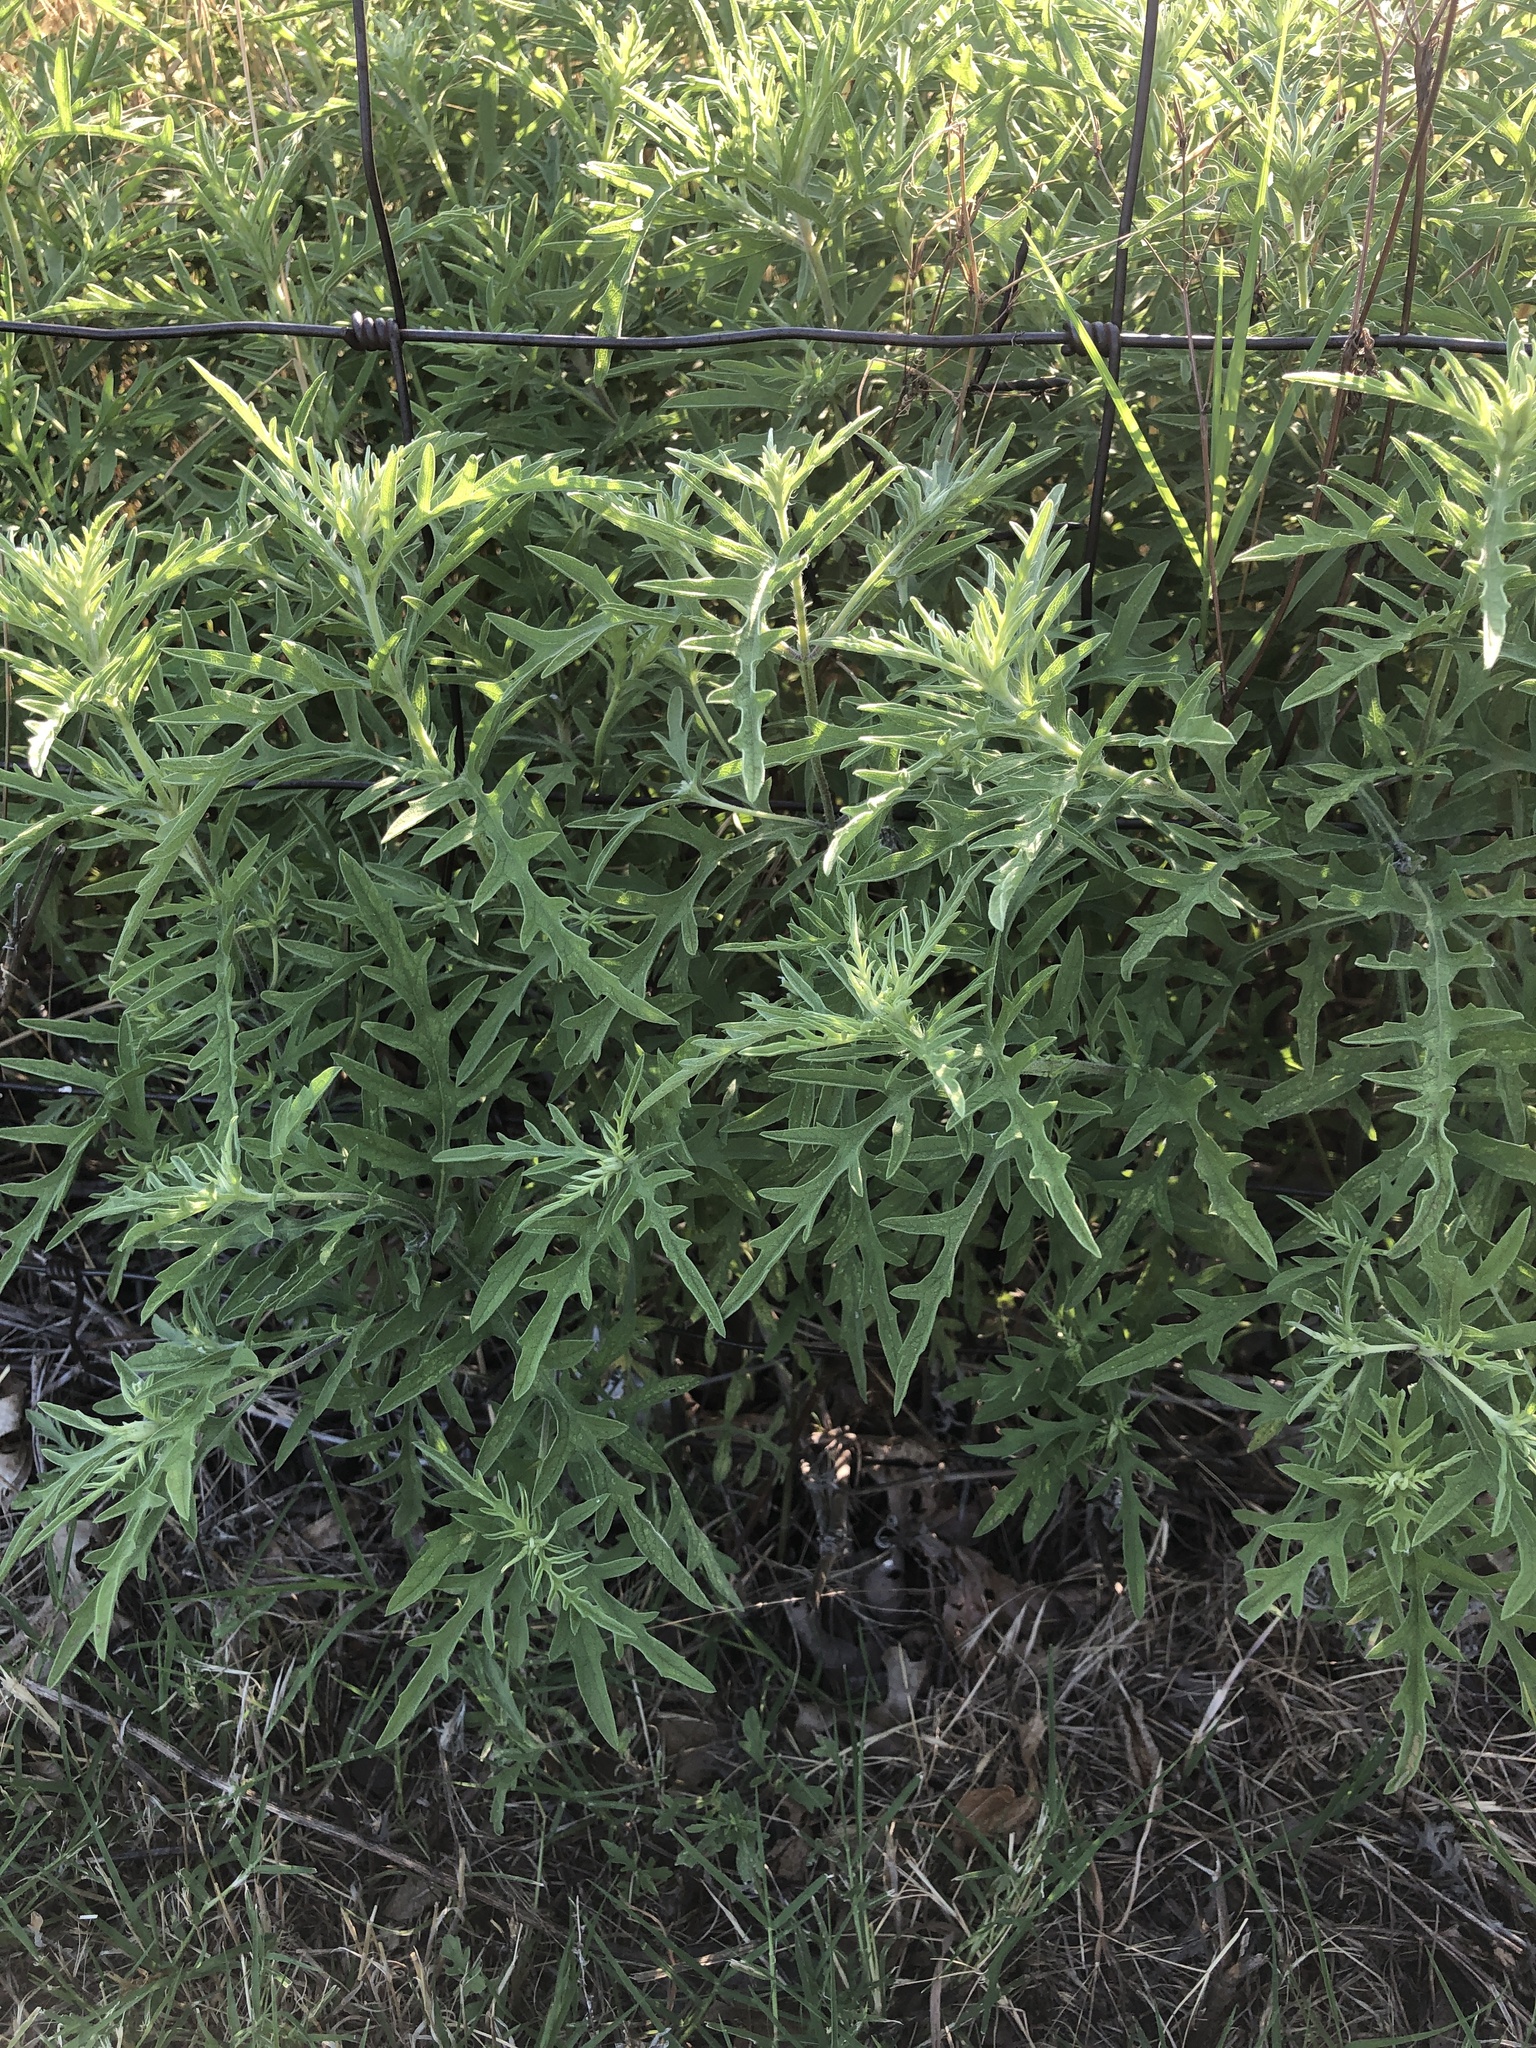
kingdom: Plantae
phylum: Tracheophyta
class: Magnoliopsida
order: Asterales
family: Asteraceae
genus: Ambrosia
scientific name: Ambrosia psilostachya
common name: Perennial ragweed
